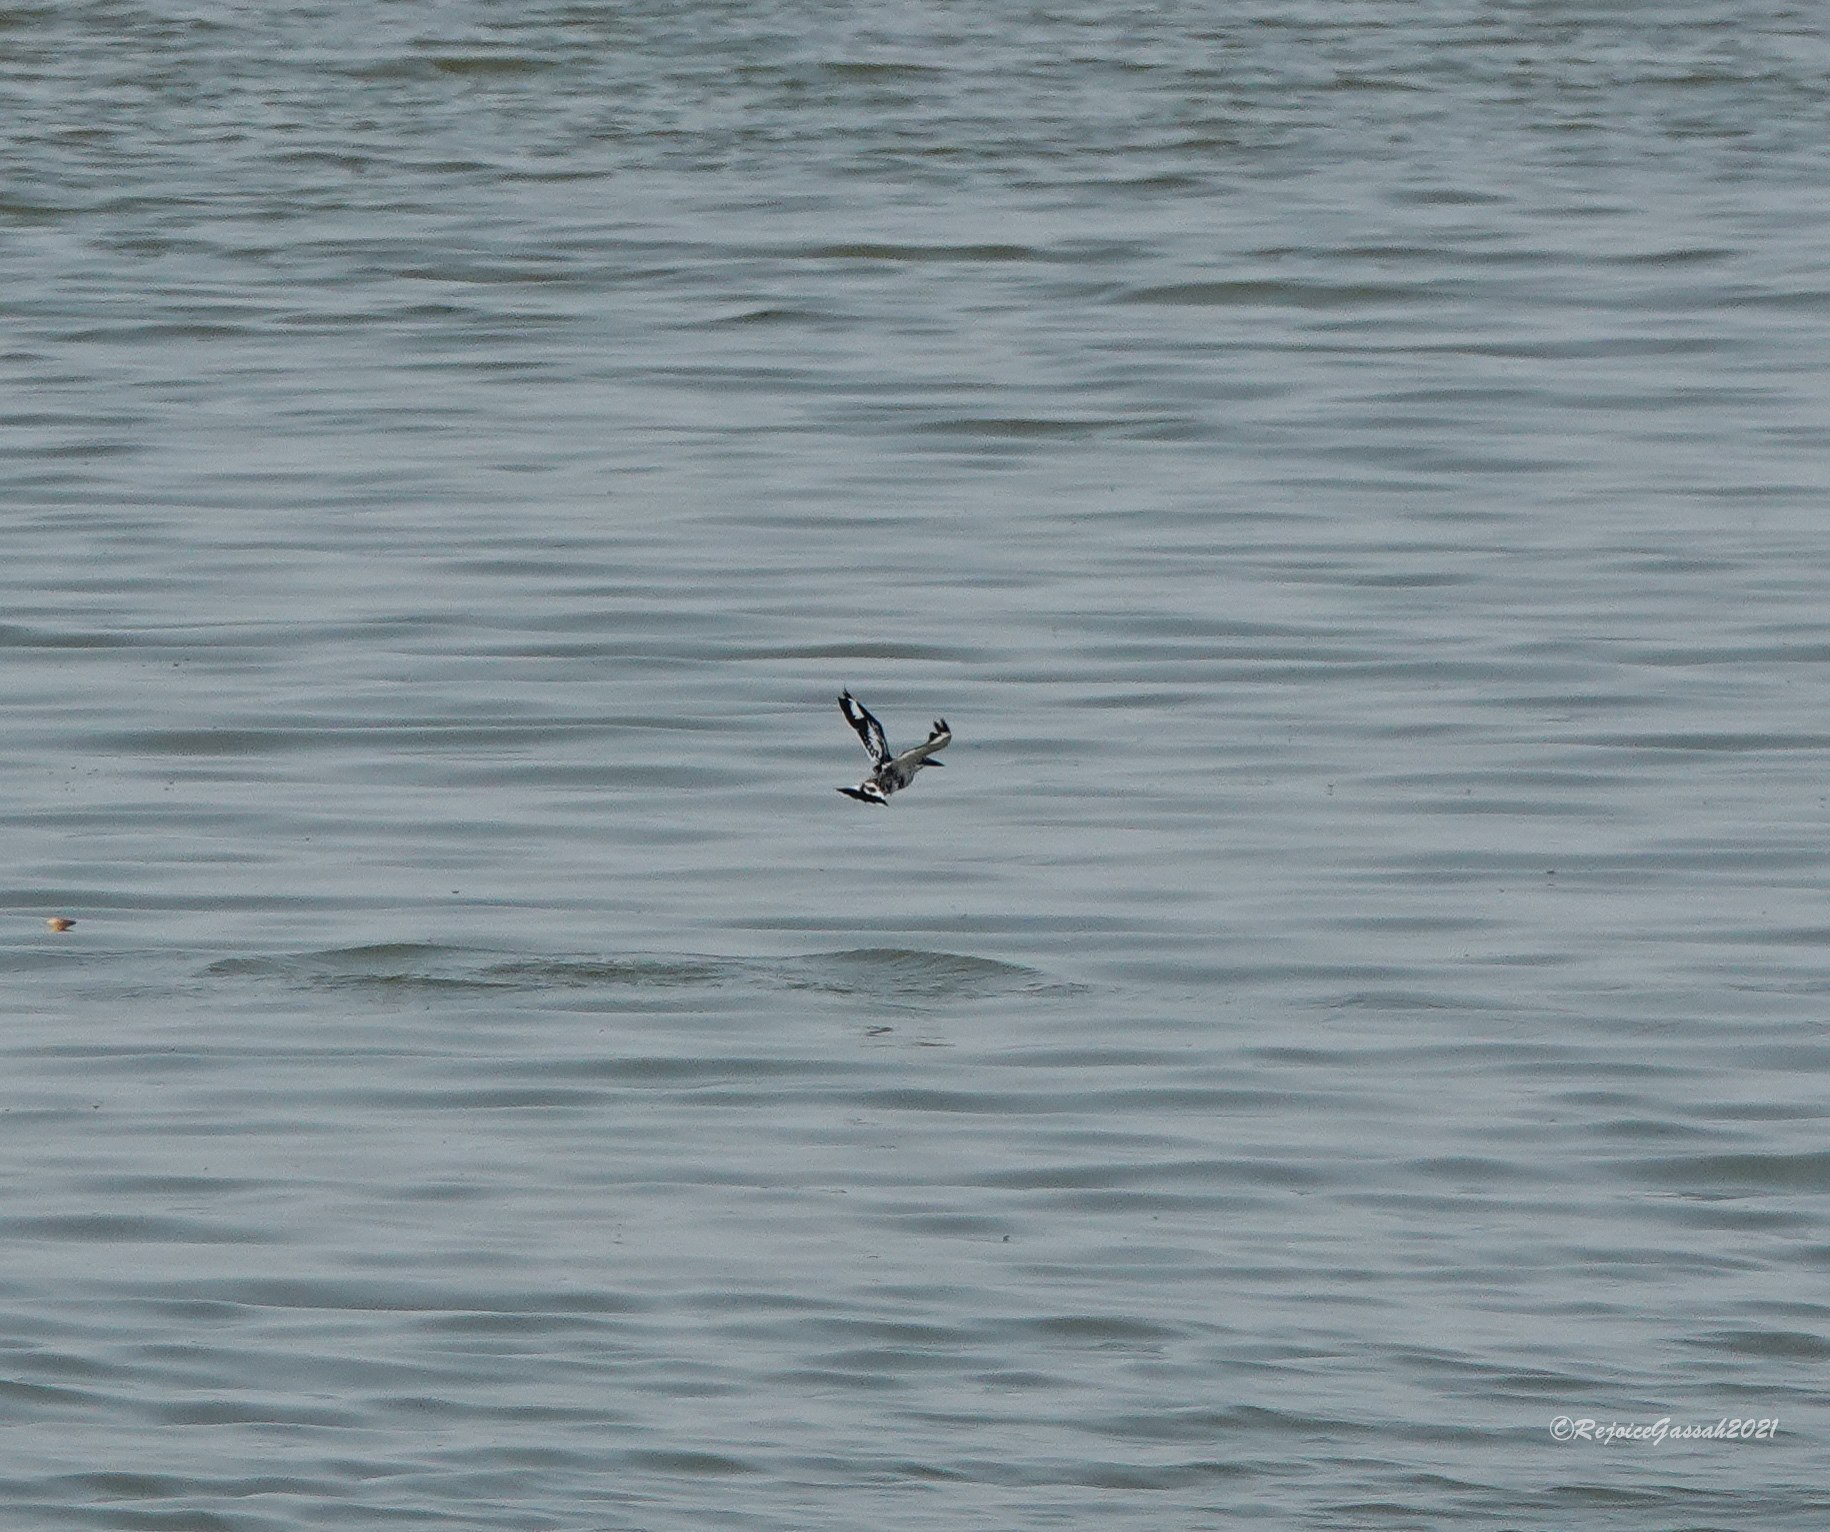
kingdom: Animalia
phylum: Chordata
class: Aves
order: Coraciiformes
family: Alcedinidae
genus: Ceryle
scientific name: Ceryle rudis
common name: Pied kingfisher
